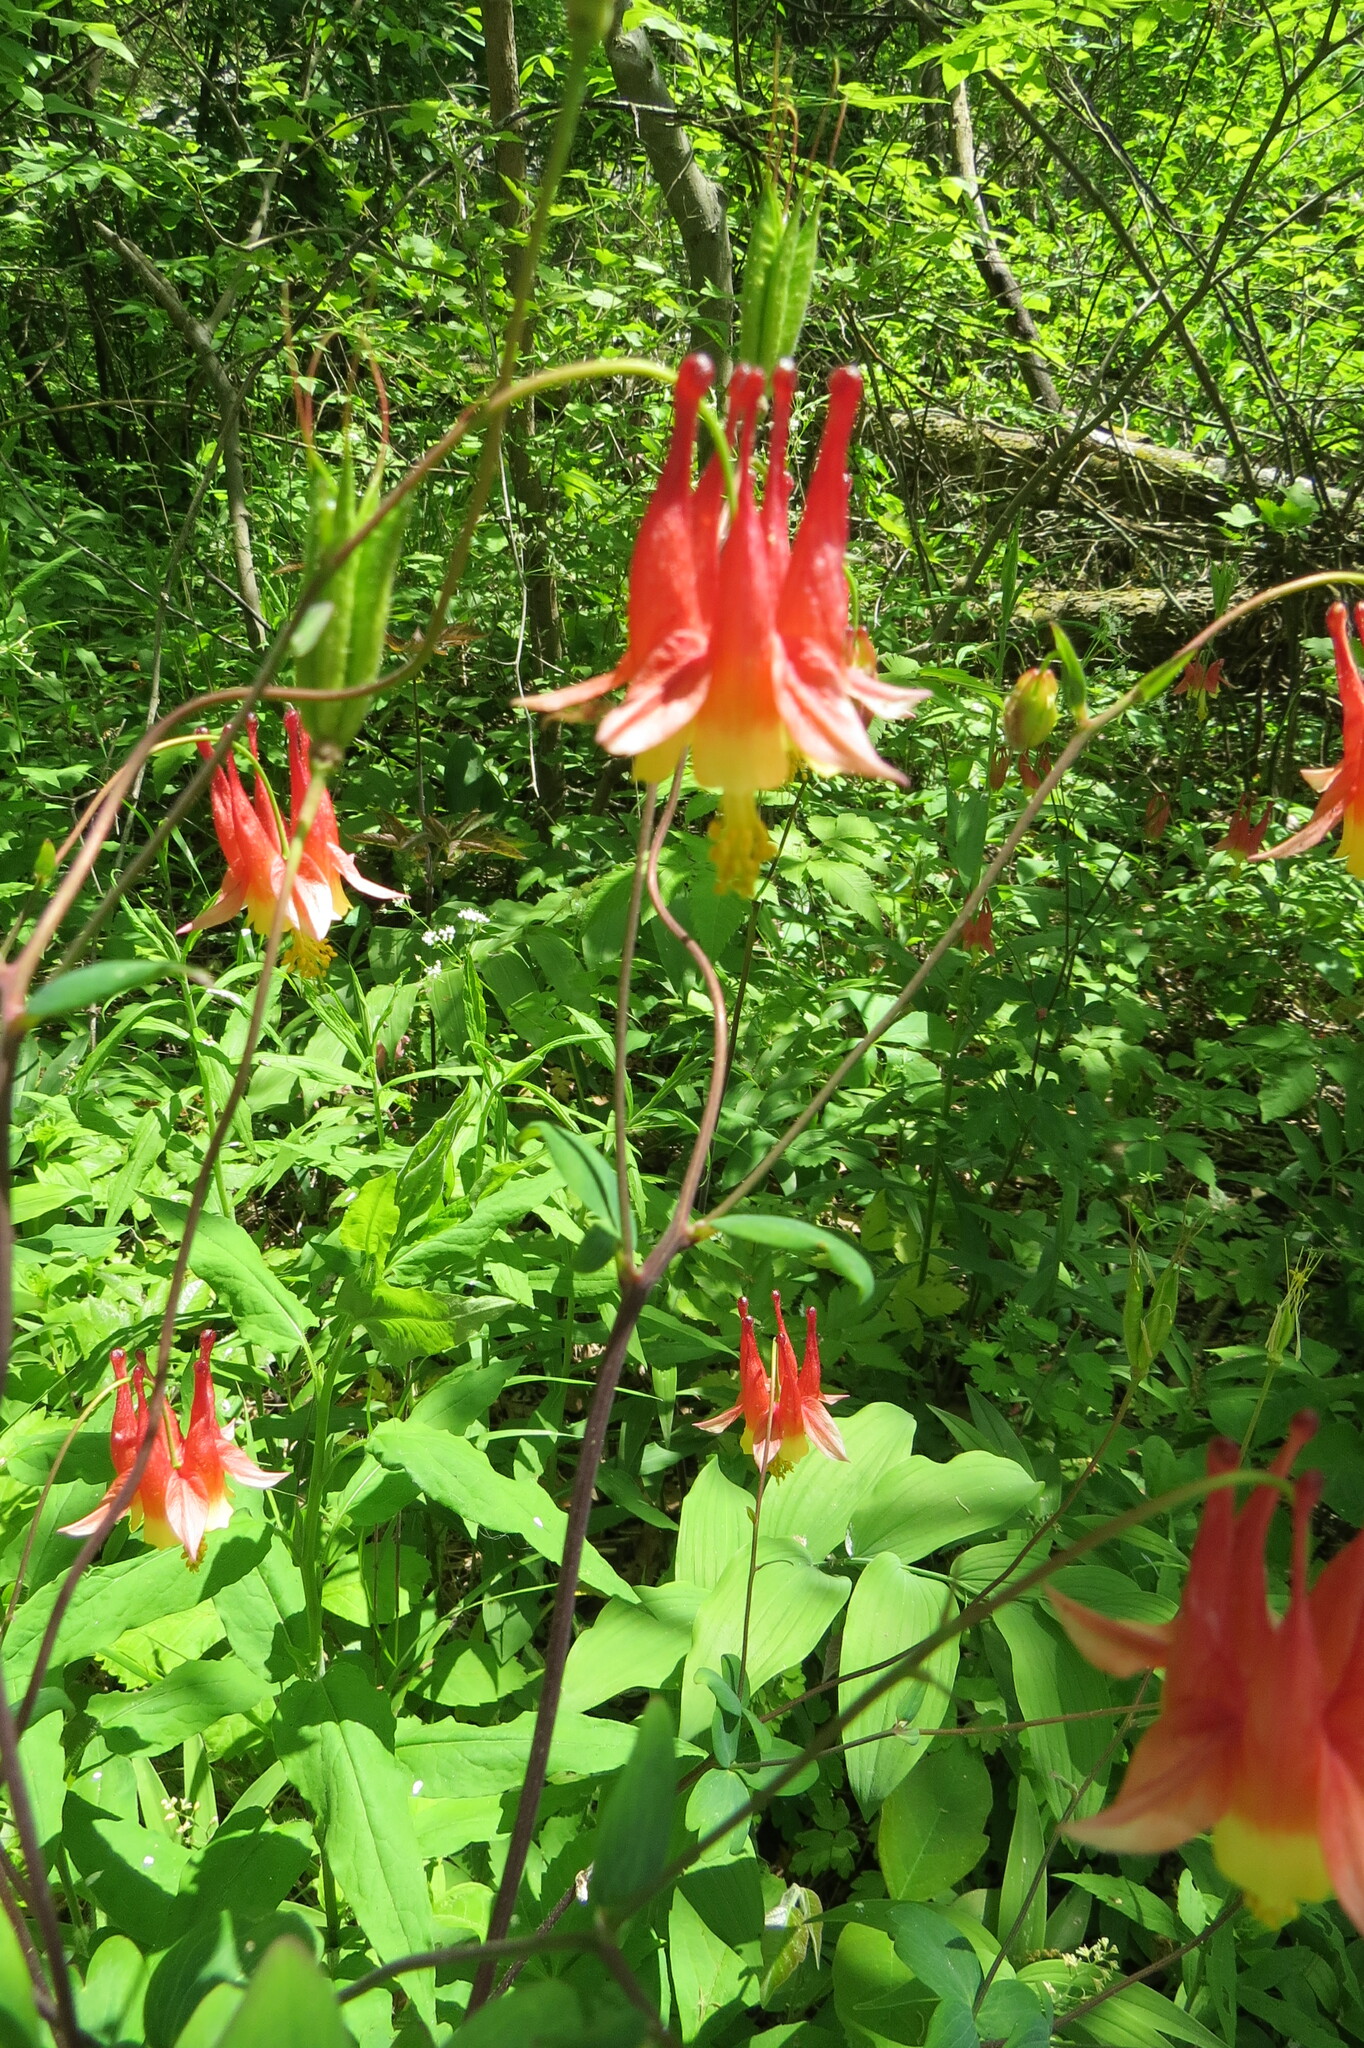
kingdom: Plantae
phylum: Tracheophyta
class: Magnoliopsida
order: Ranunculales
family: Ranunculaceae
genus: Aquilegia
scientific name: Aquilegia canadensis
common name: American columbine
